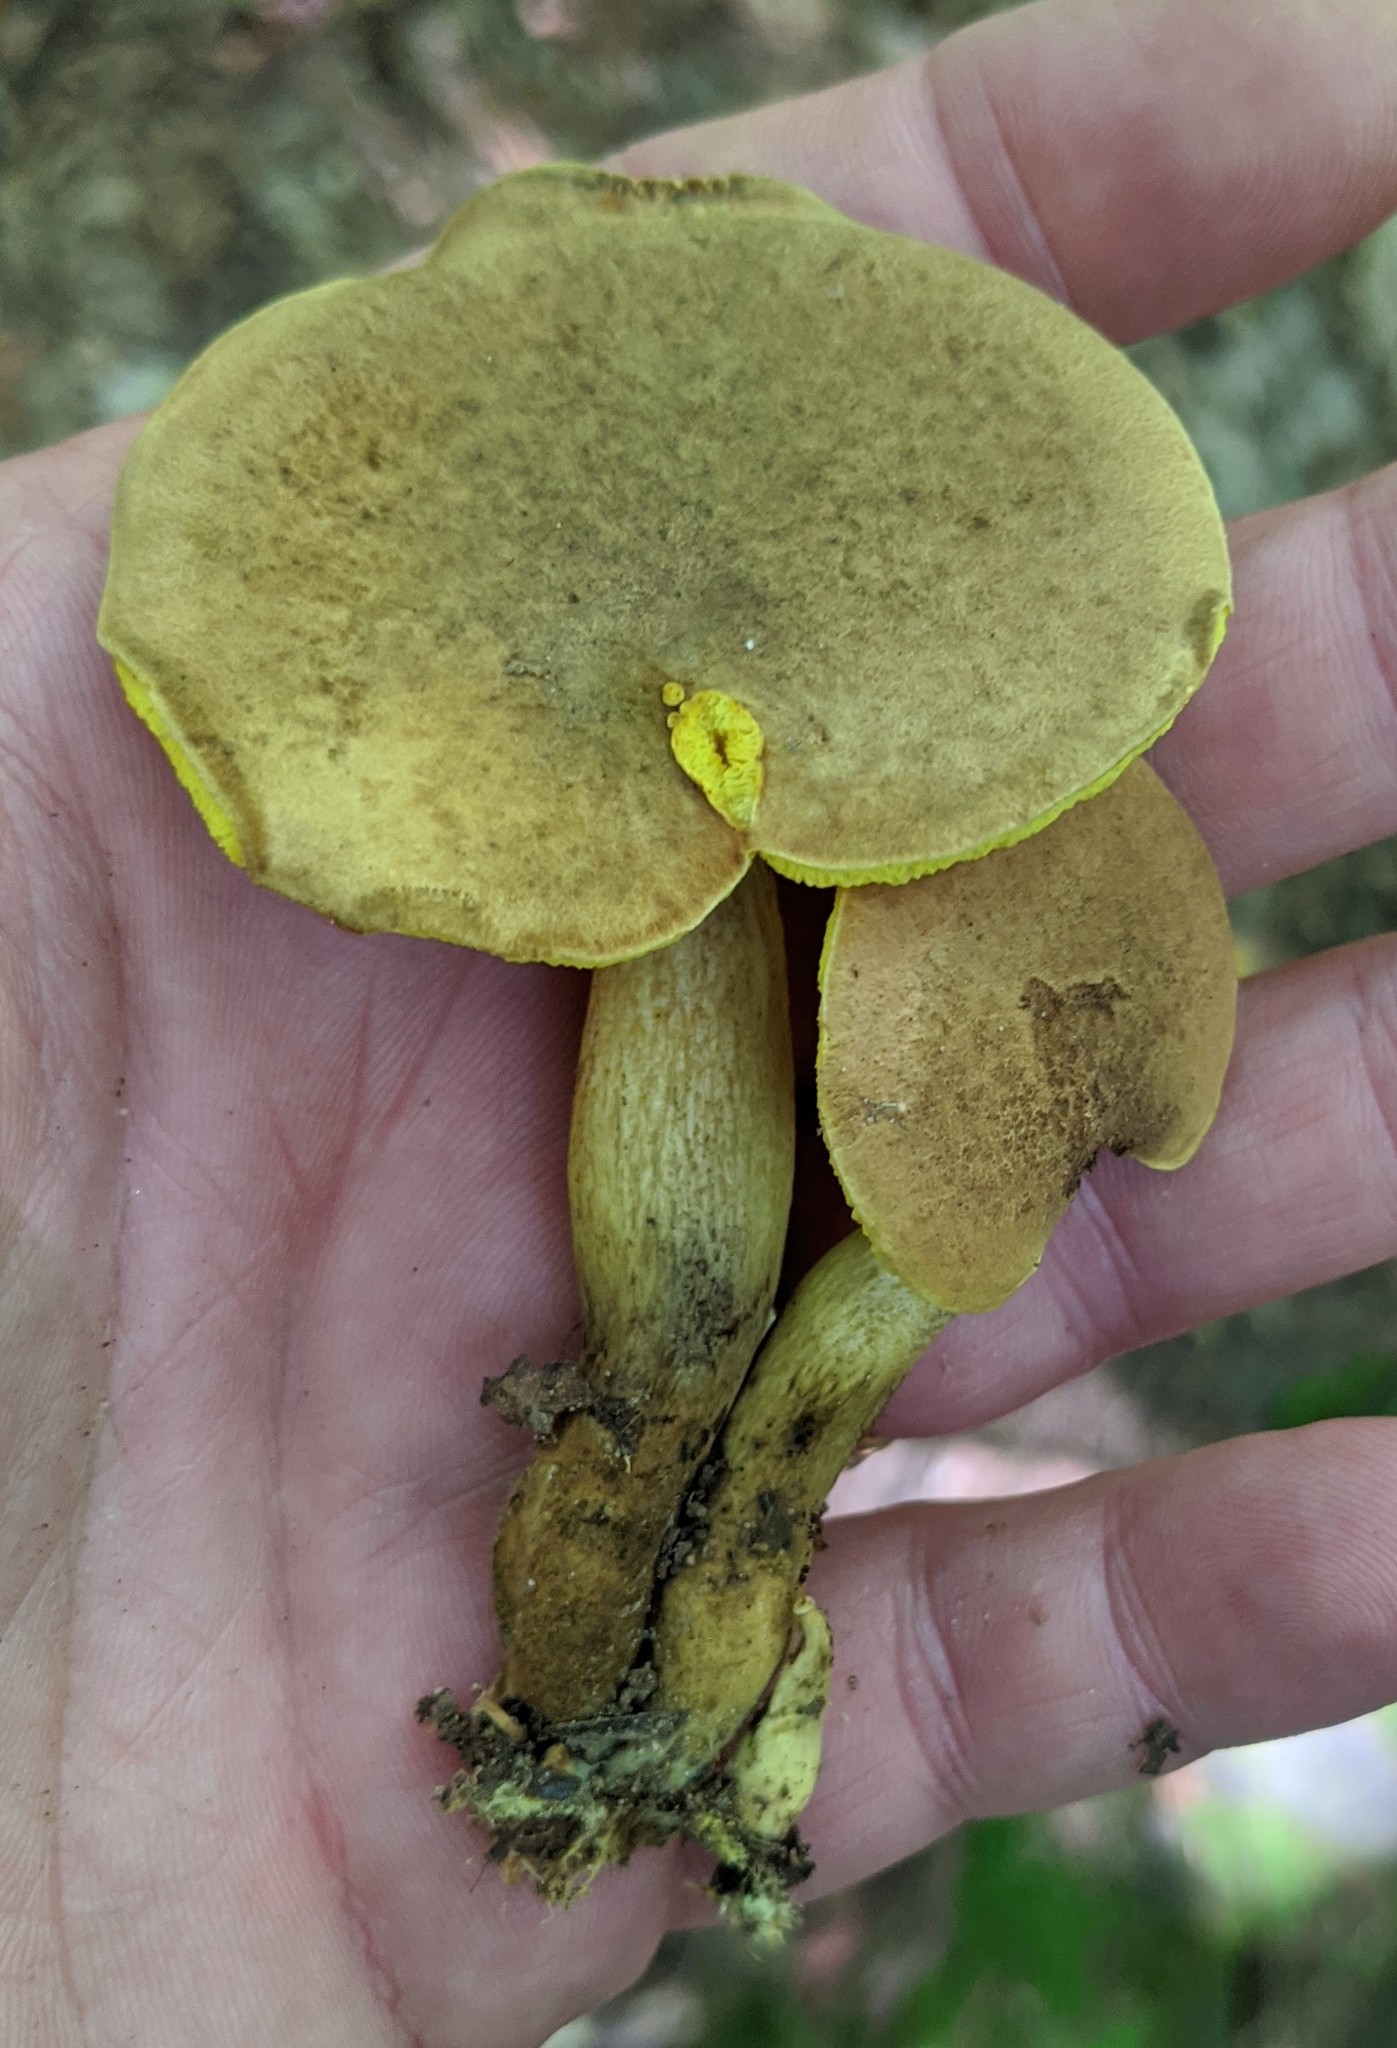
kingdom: Fungi
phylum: Basidiomycota
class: Agaricomycetes
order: Boletales
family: Boletaceae
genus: Aureoboletus
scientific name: Aureoboletus innixus
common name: Clustered brown bolete
